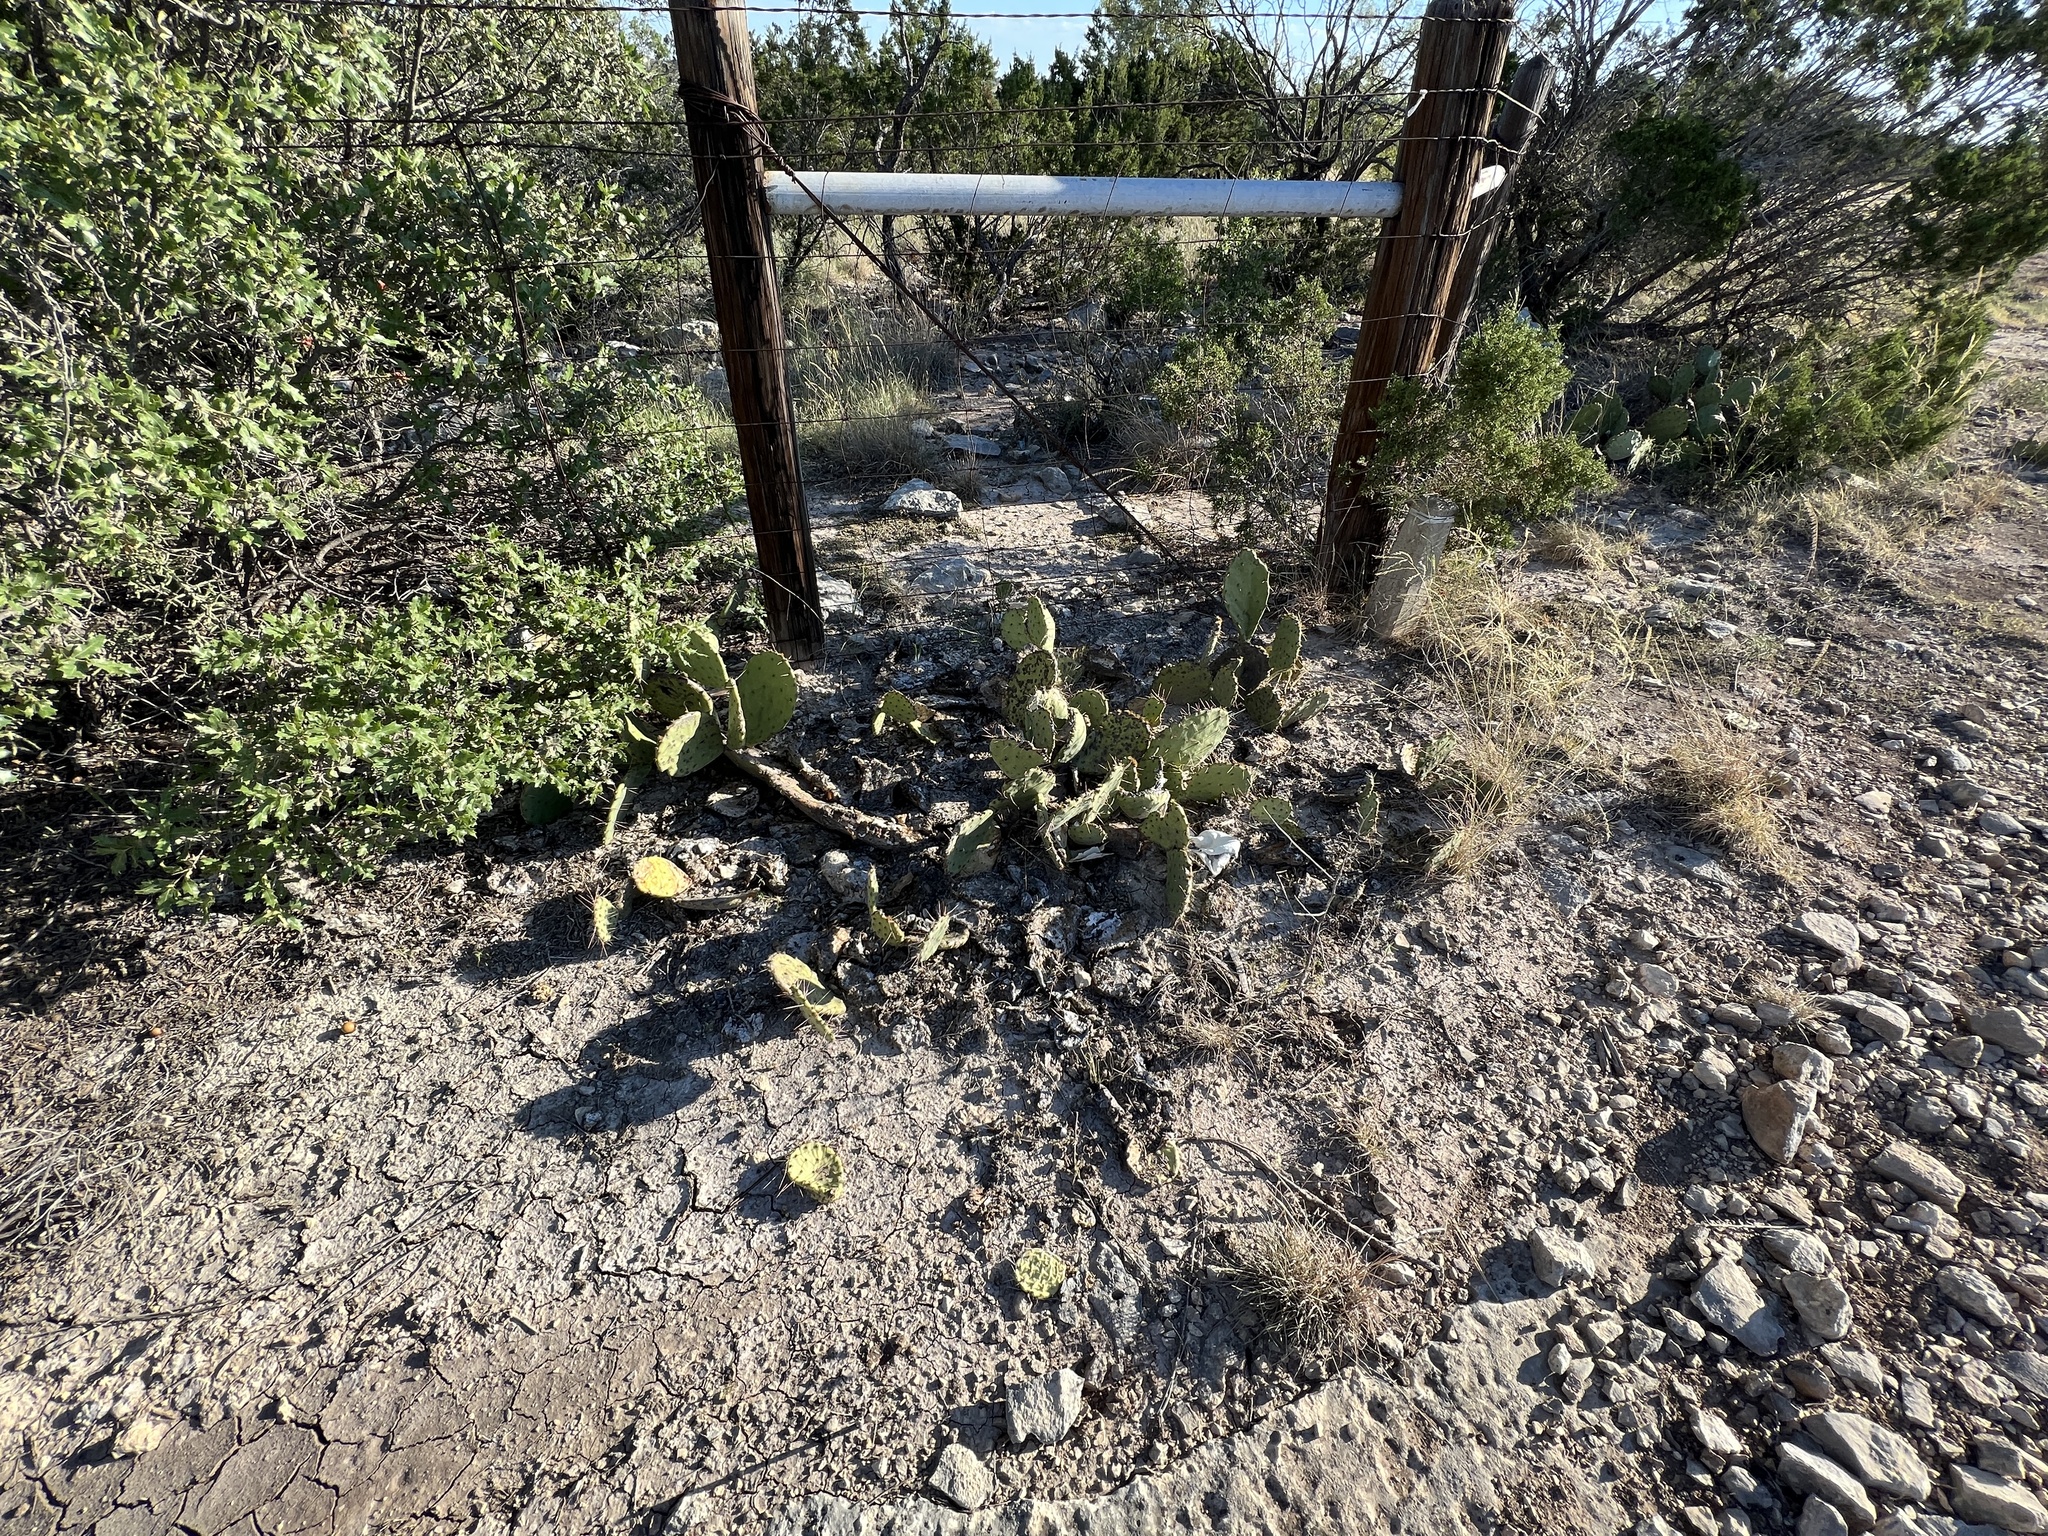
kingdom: Plantae
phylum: Tracheophyta
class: Magnoliopsida
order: Caryophyllales
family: Cactaceae
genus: Opuntia
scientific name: Opuntia engelmannii
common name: Cactus-apple
